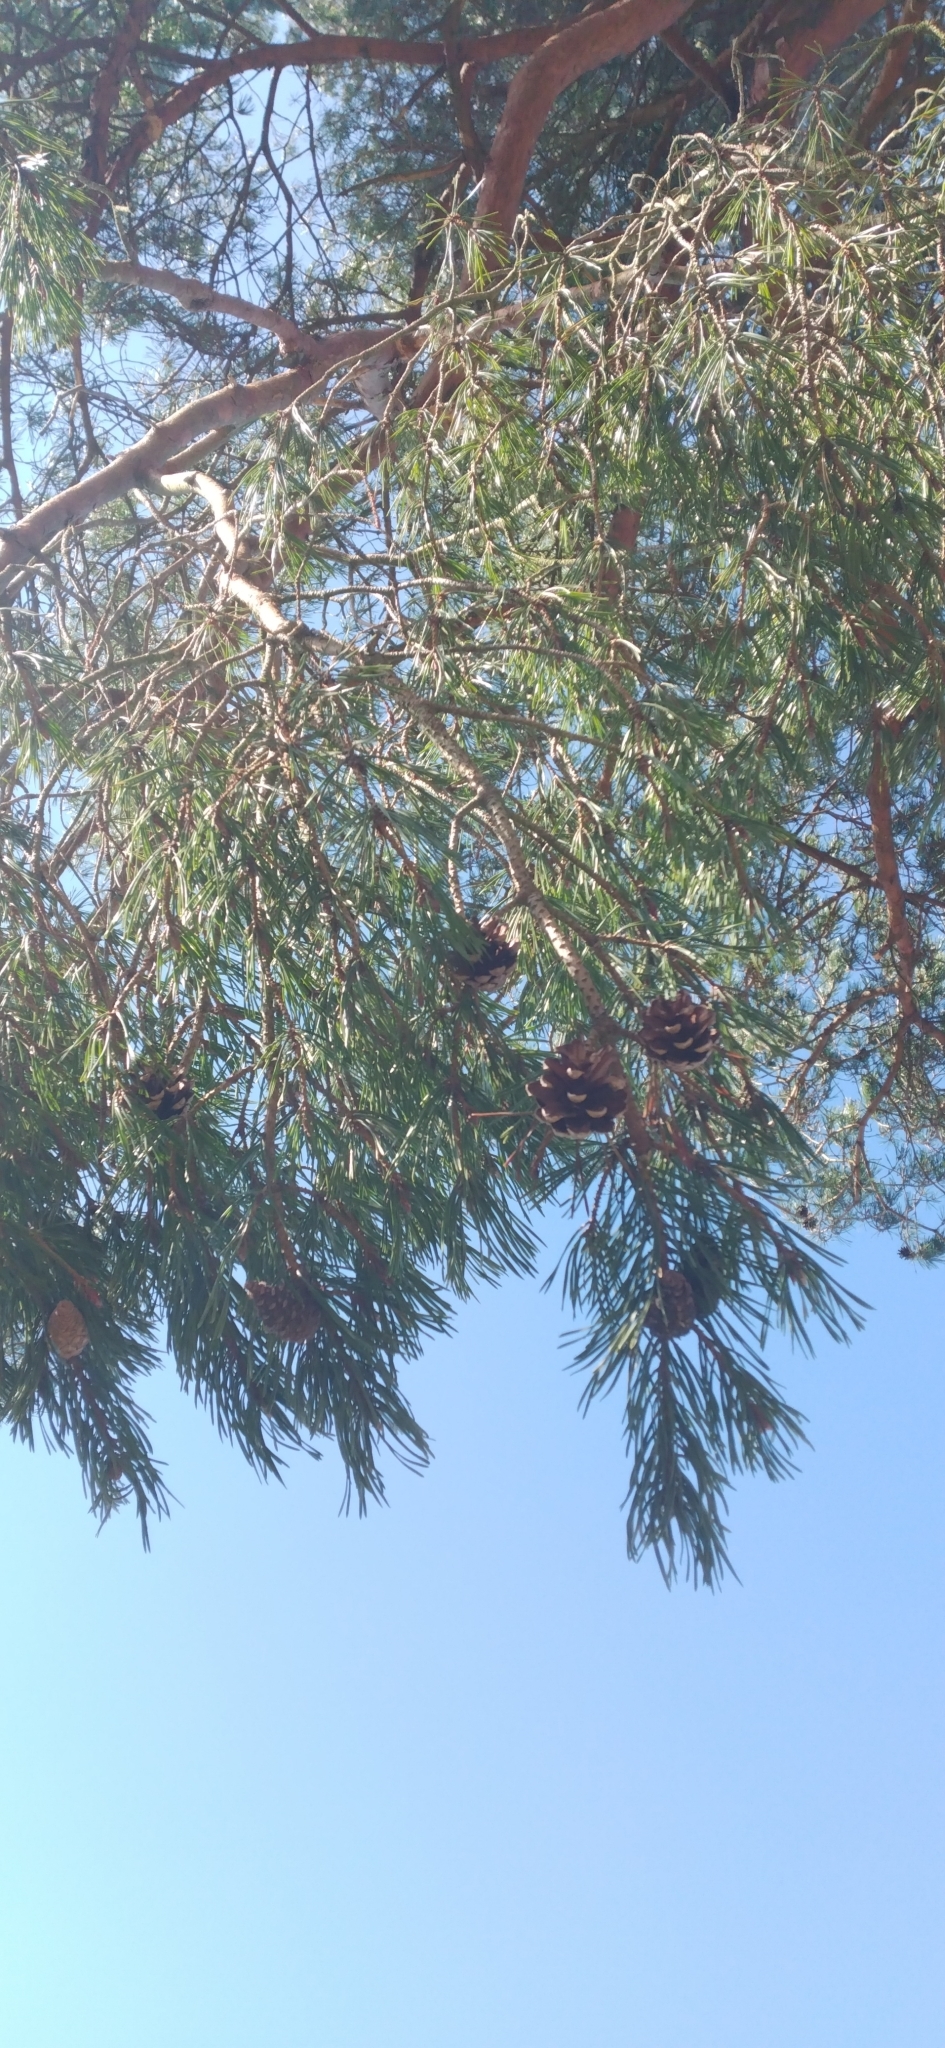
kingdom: Plantae
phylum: Tracheophyta
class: Pinopsida
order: Pinales
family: Pinaceae
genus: Pinus
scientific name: Pinus sylvestris
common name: Scots pine
